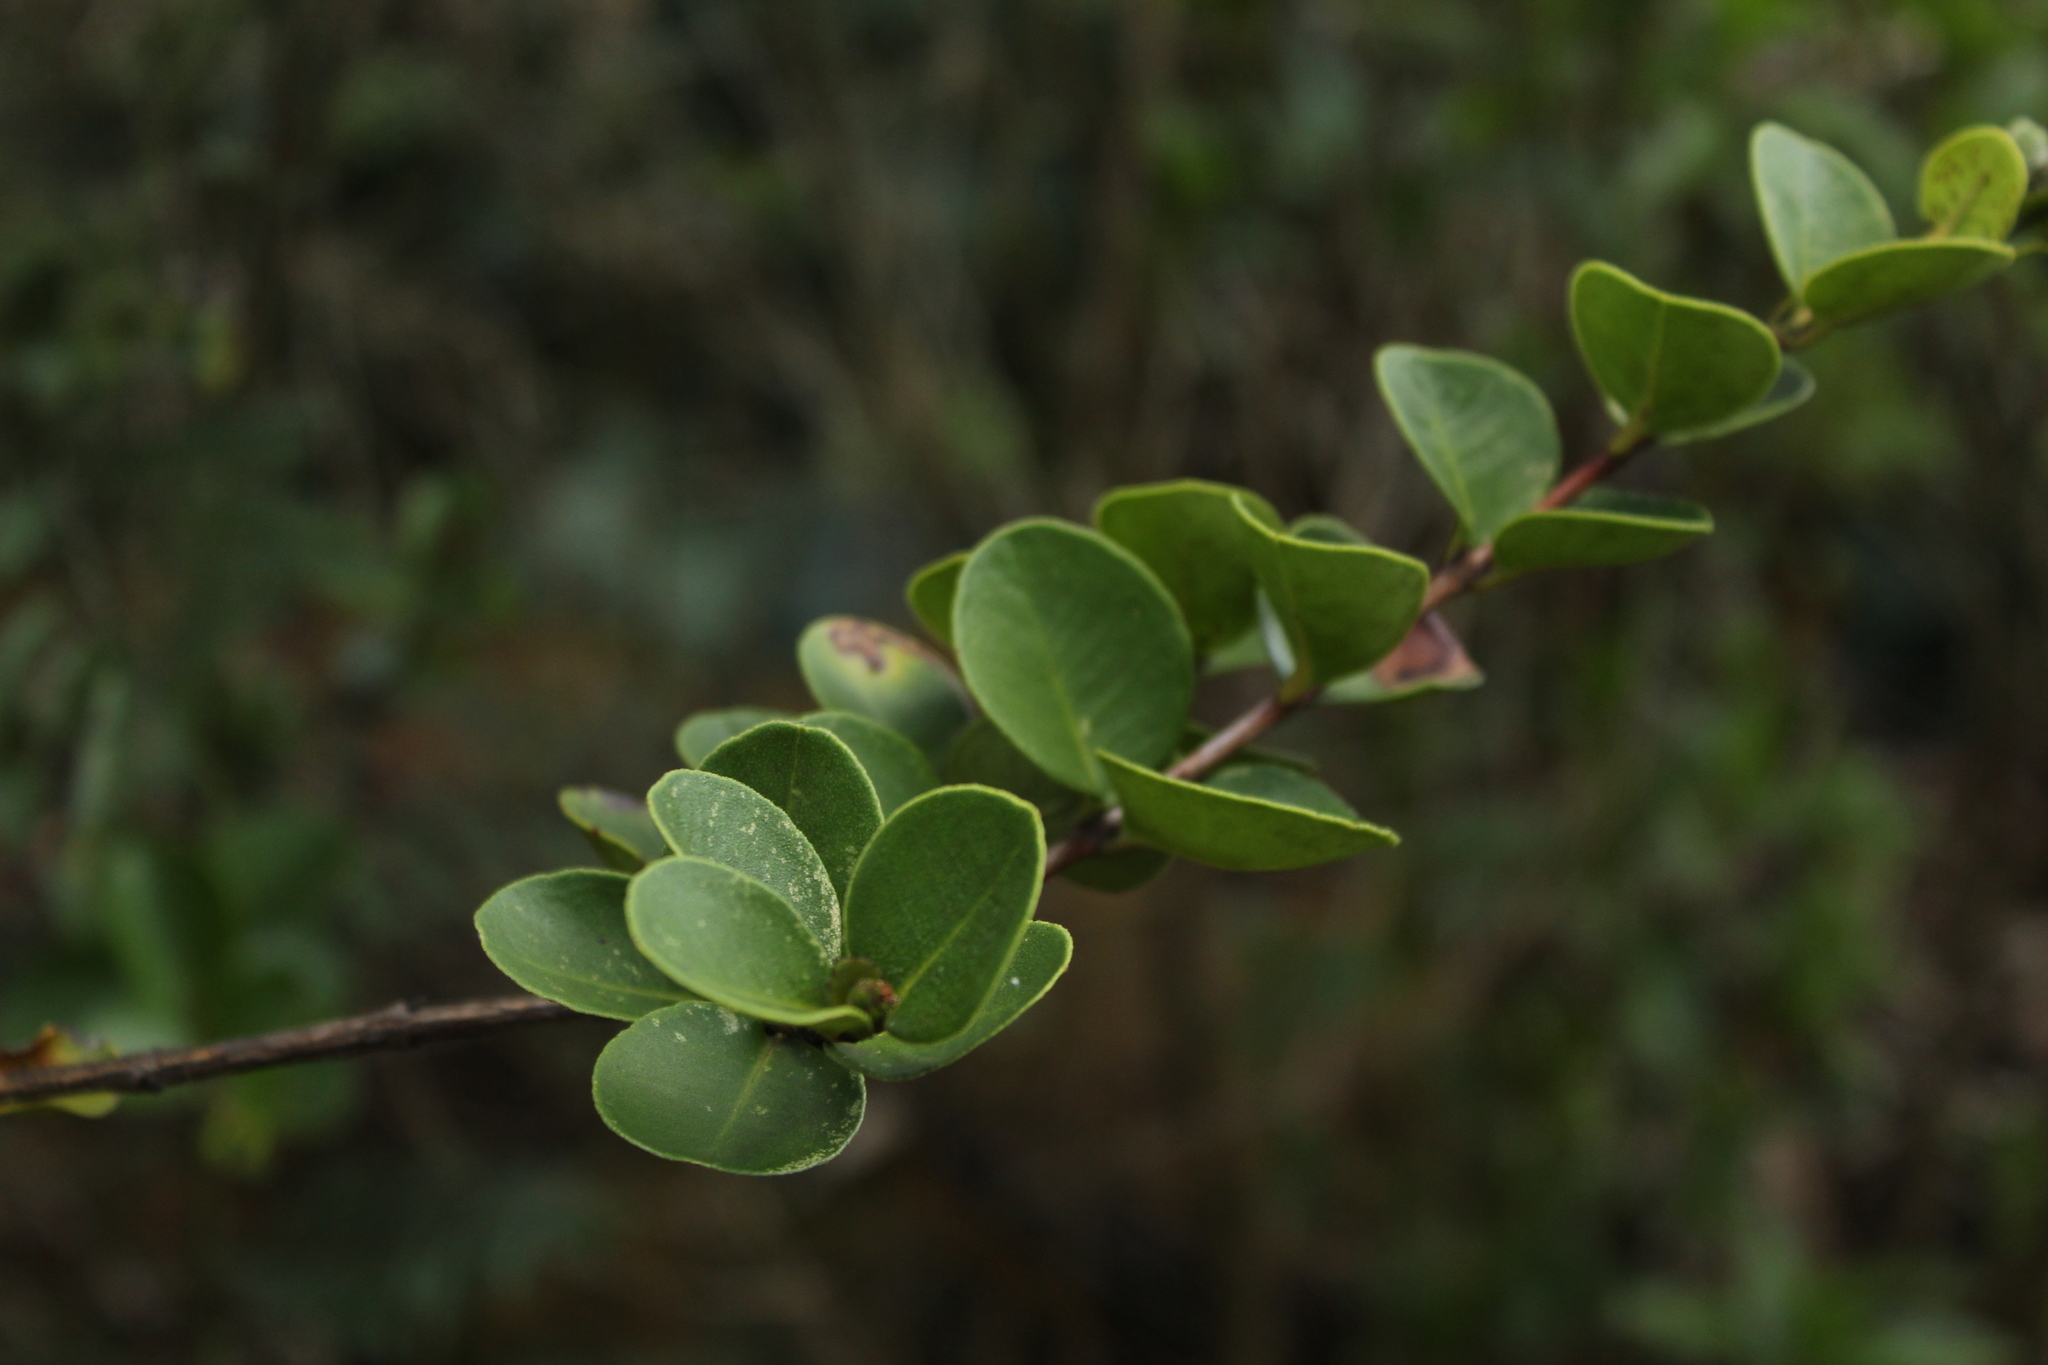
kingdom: Plantae
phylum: Tracheophyta
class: Magnoliopsida
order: Myrtales
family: Myrtaceae
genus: Myrcianthes
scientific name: Myrcianthes leucoxyla
